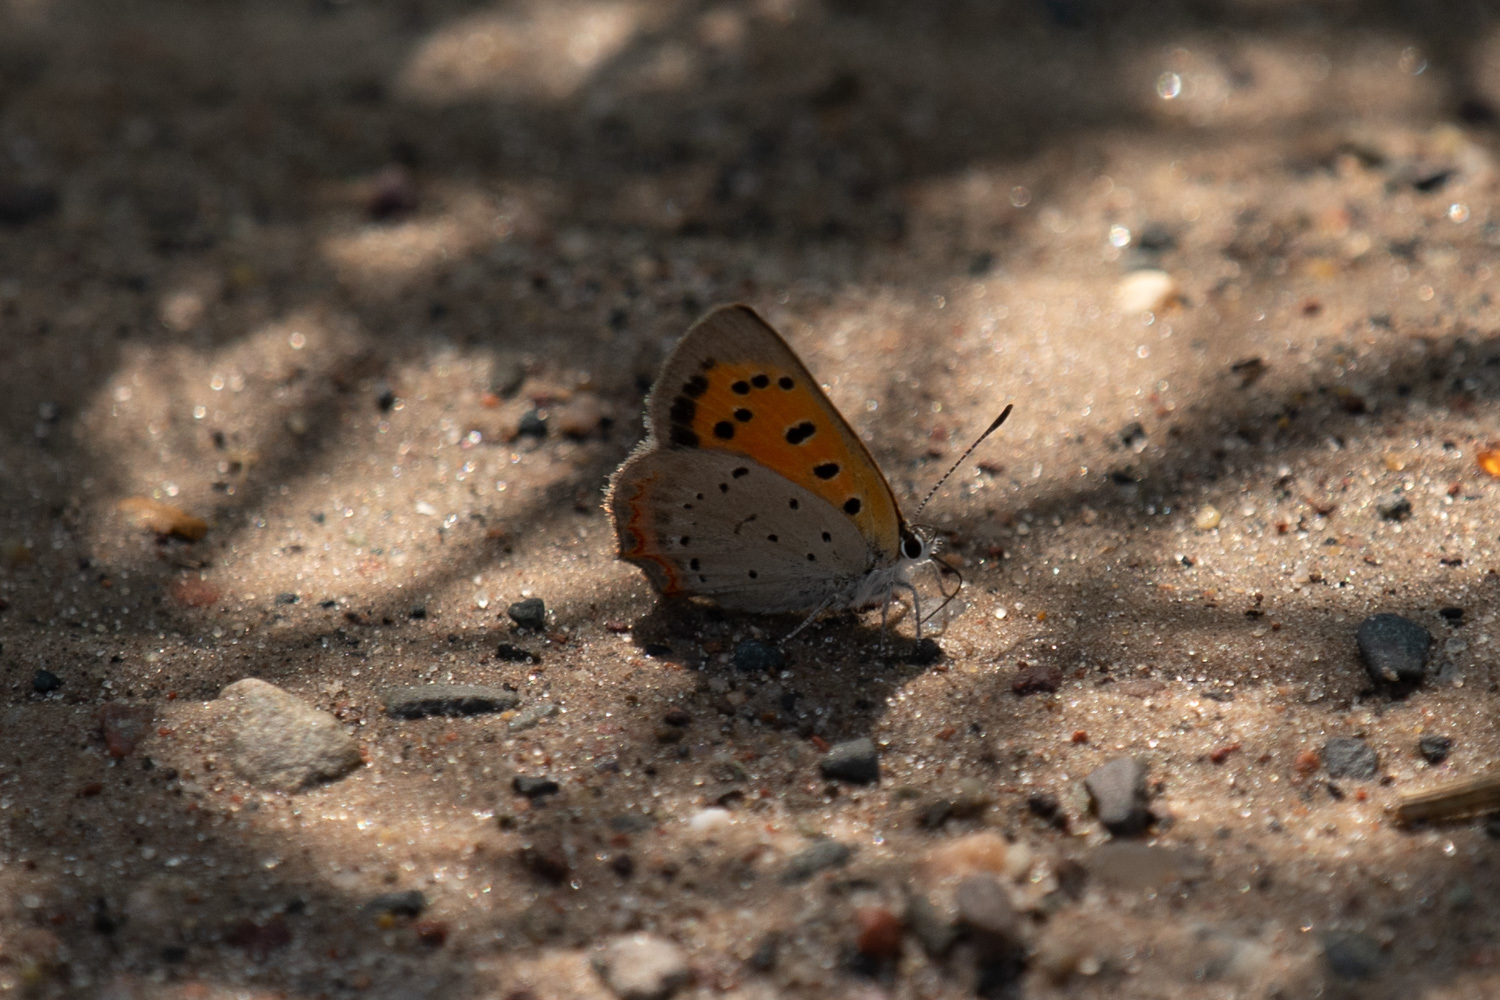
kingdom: Animalia
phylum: Arthropoda
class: Insecta
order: Lepidoptera
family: Lycaenidae
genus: Lycaena
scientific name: Lycaena hypophlaeas
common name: American copper
